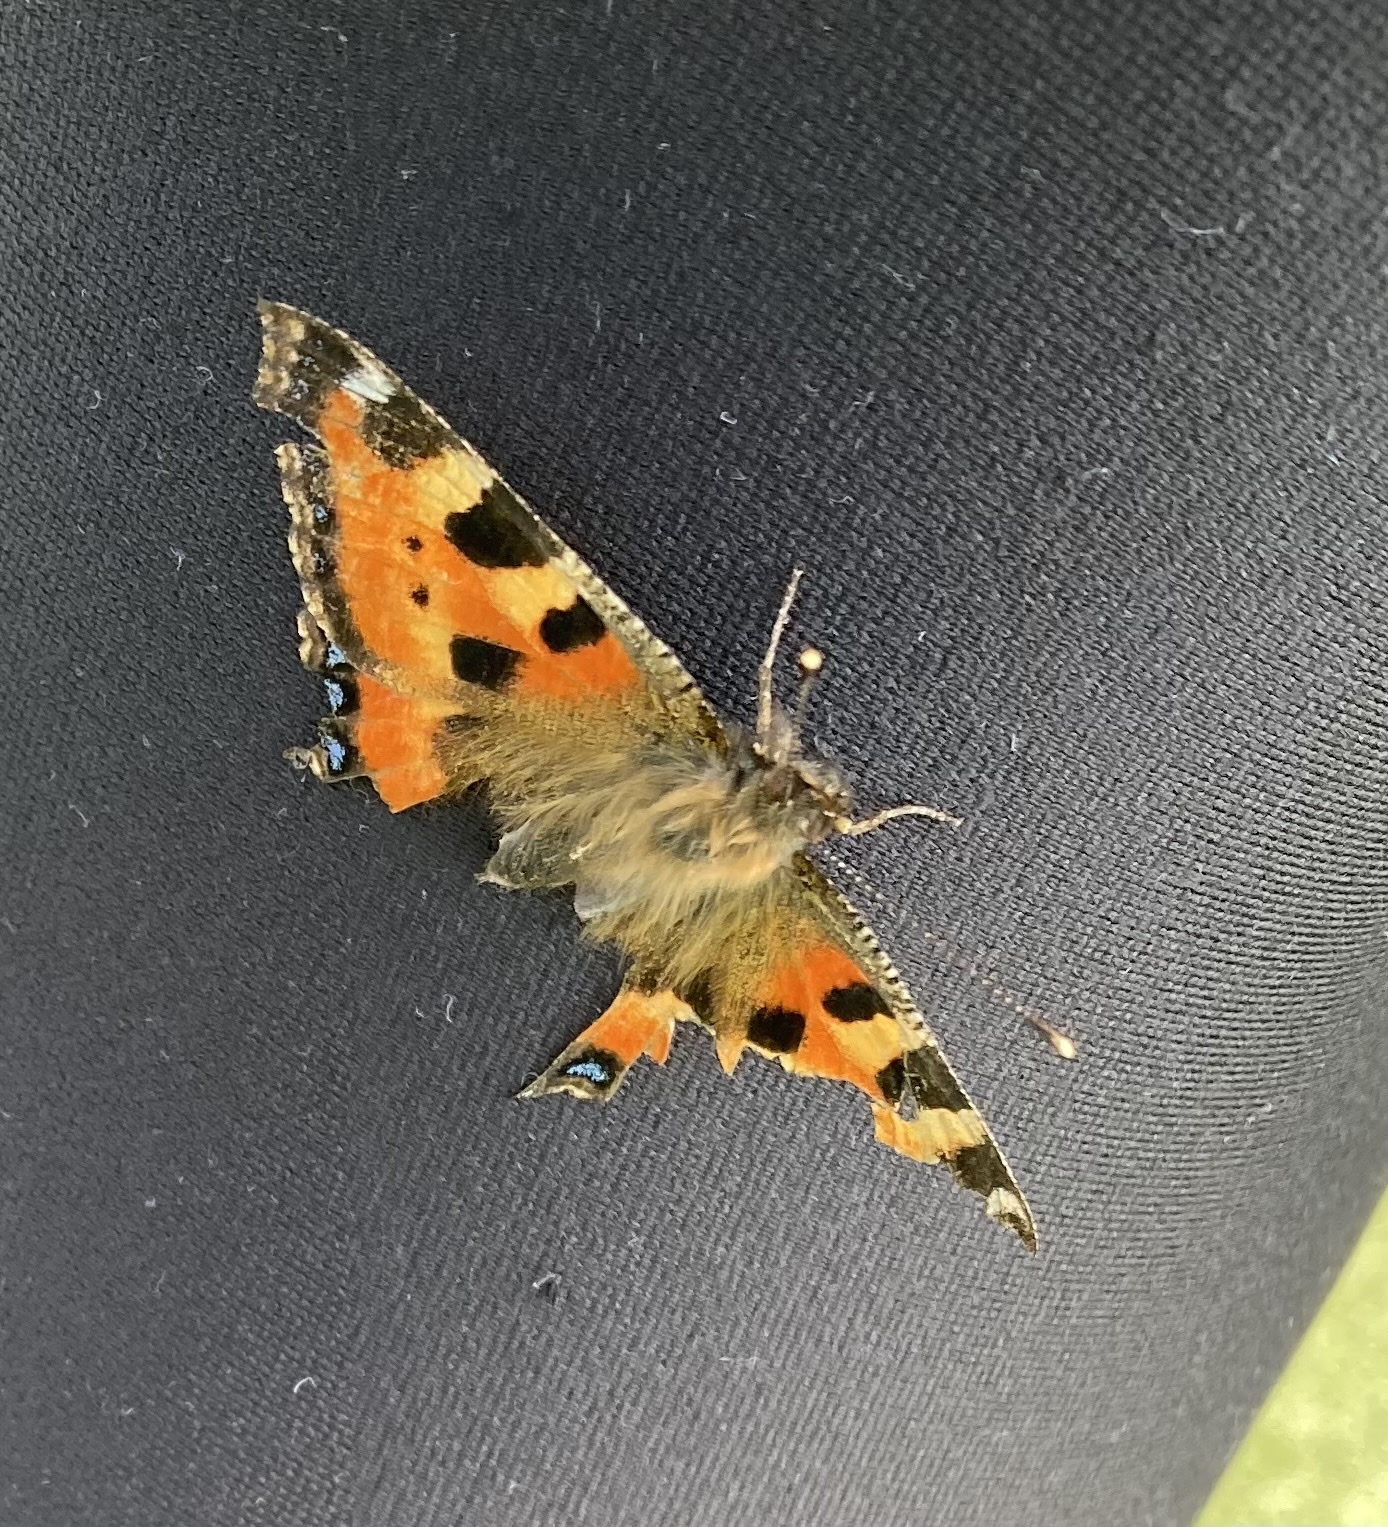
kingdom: Animalia
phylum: Arthropoda
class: Insecta
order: Lepidoptera
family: Nymphalidae
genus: Aglais
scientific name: Aglais urticae
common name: Small tortoiseshell
